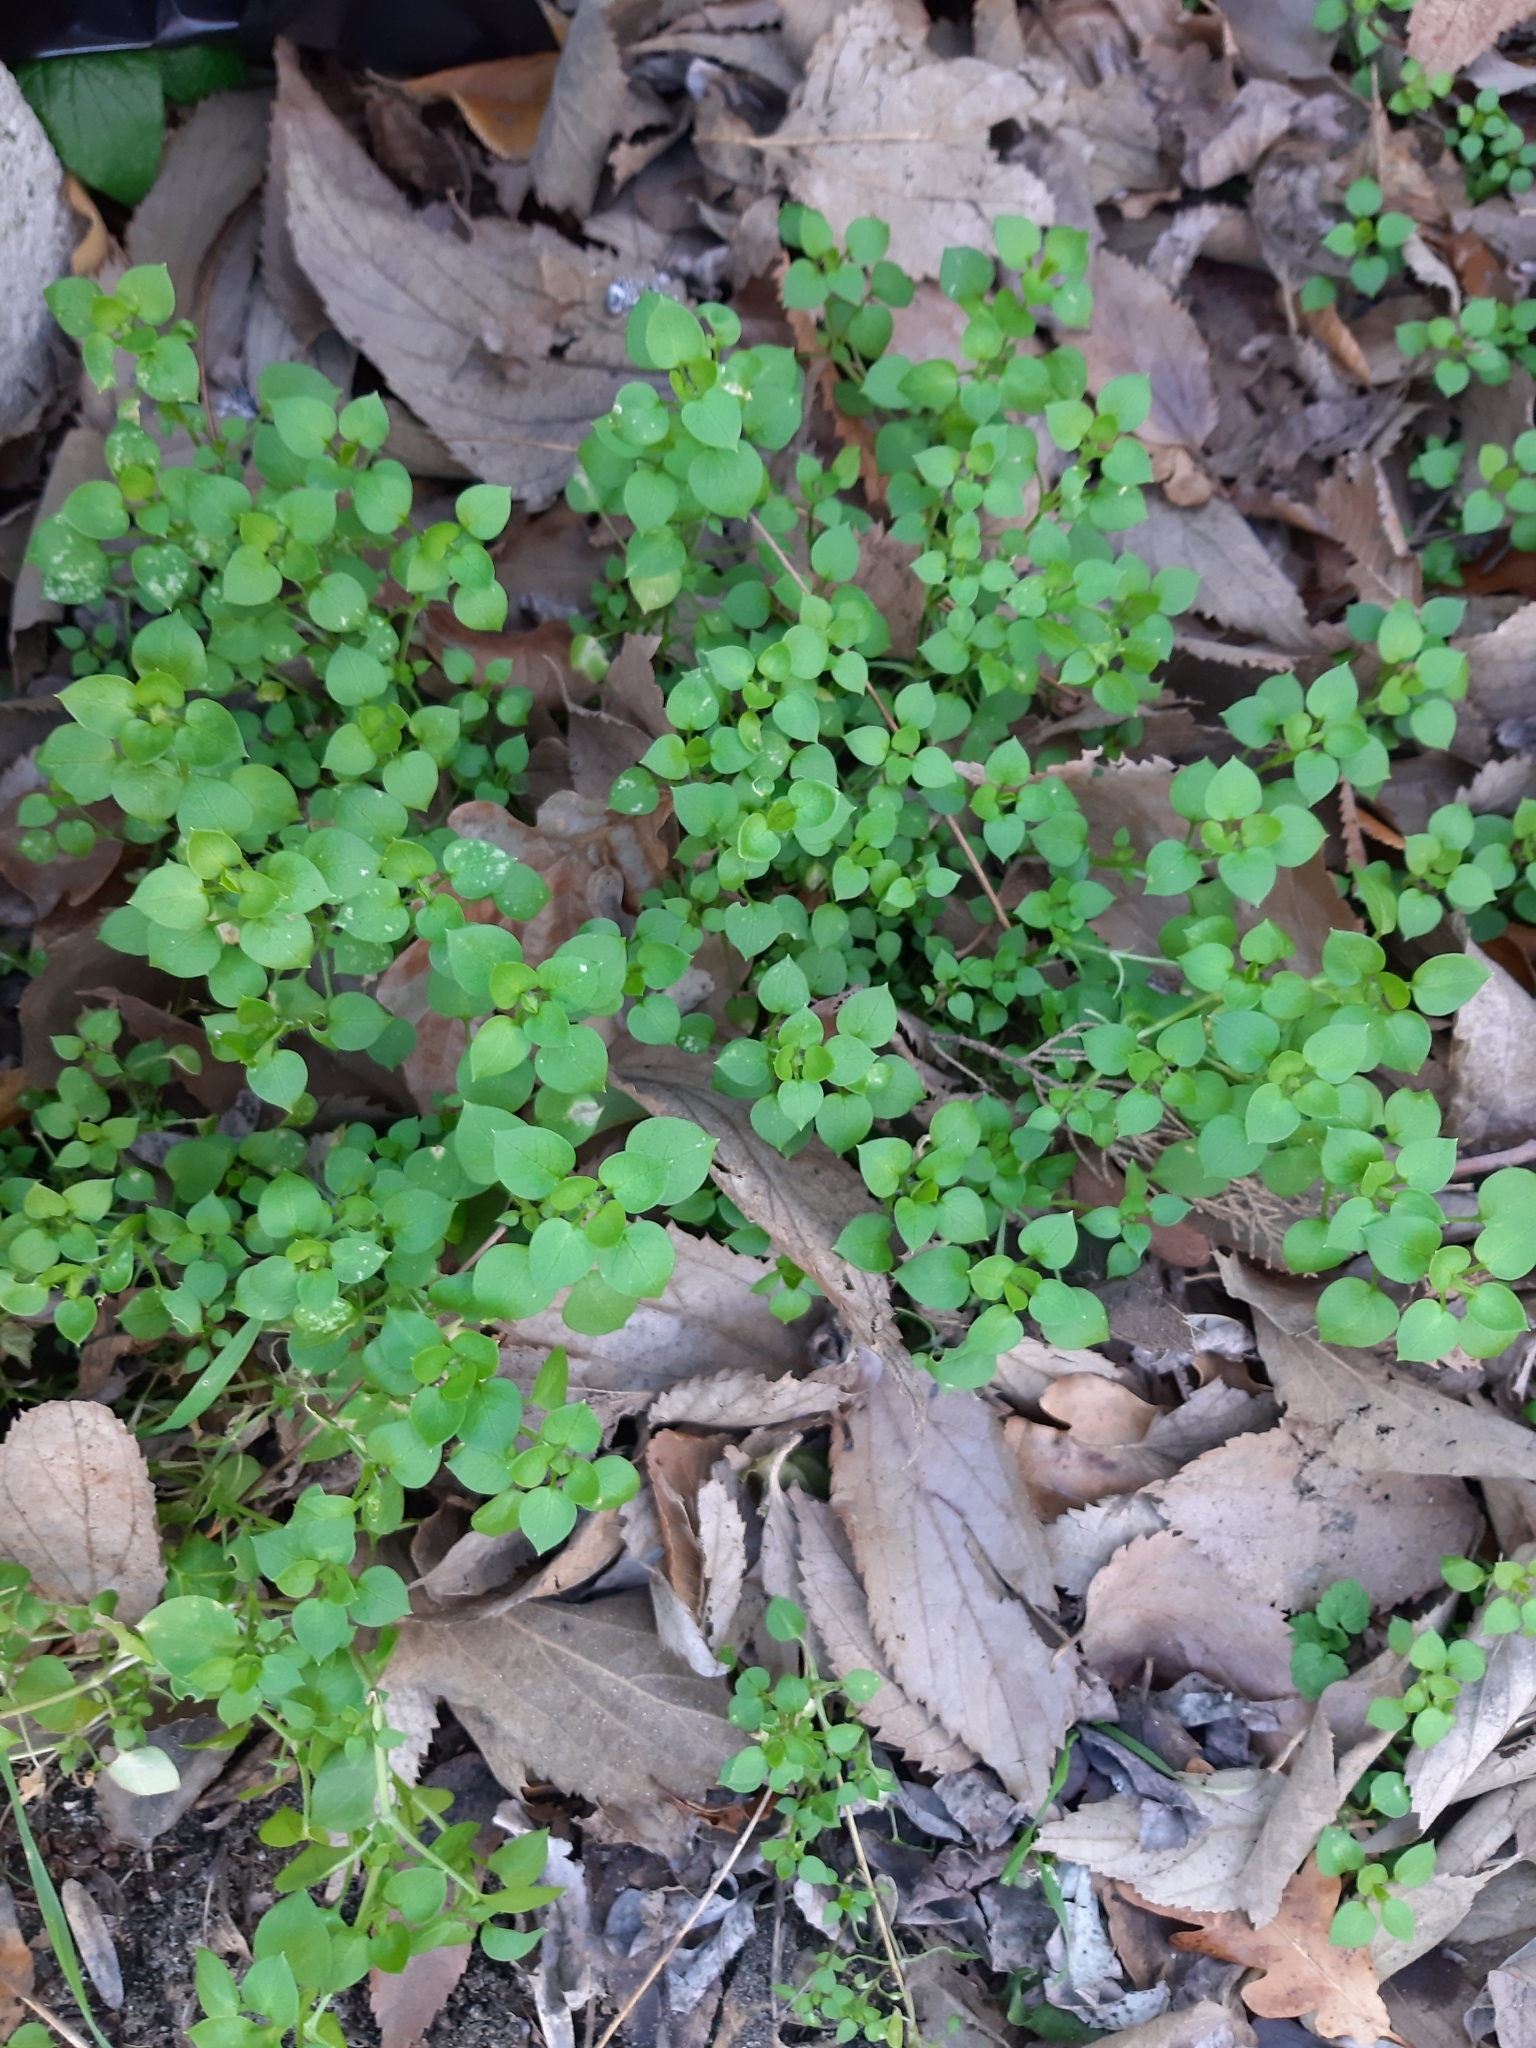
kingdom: Plantae
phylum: Tracheophyta
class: Magnoliopsida
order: Caryophyllales
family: Caryophyllaceae
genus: Stellaria
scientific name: Stellaria media
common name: Common chickweed
